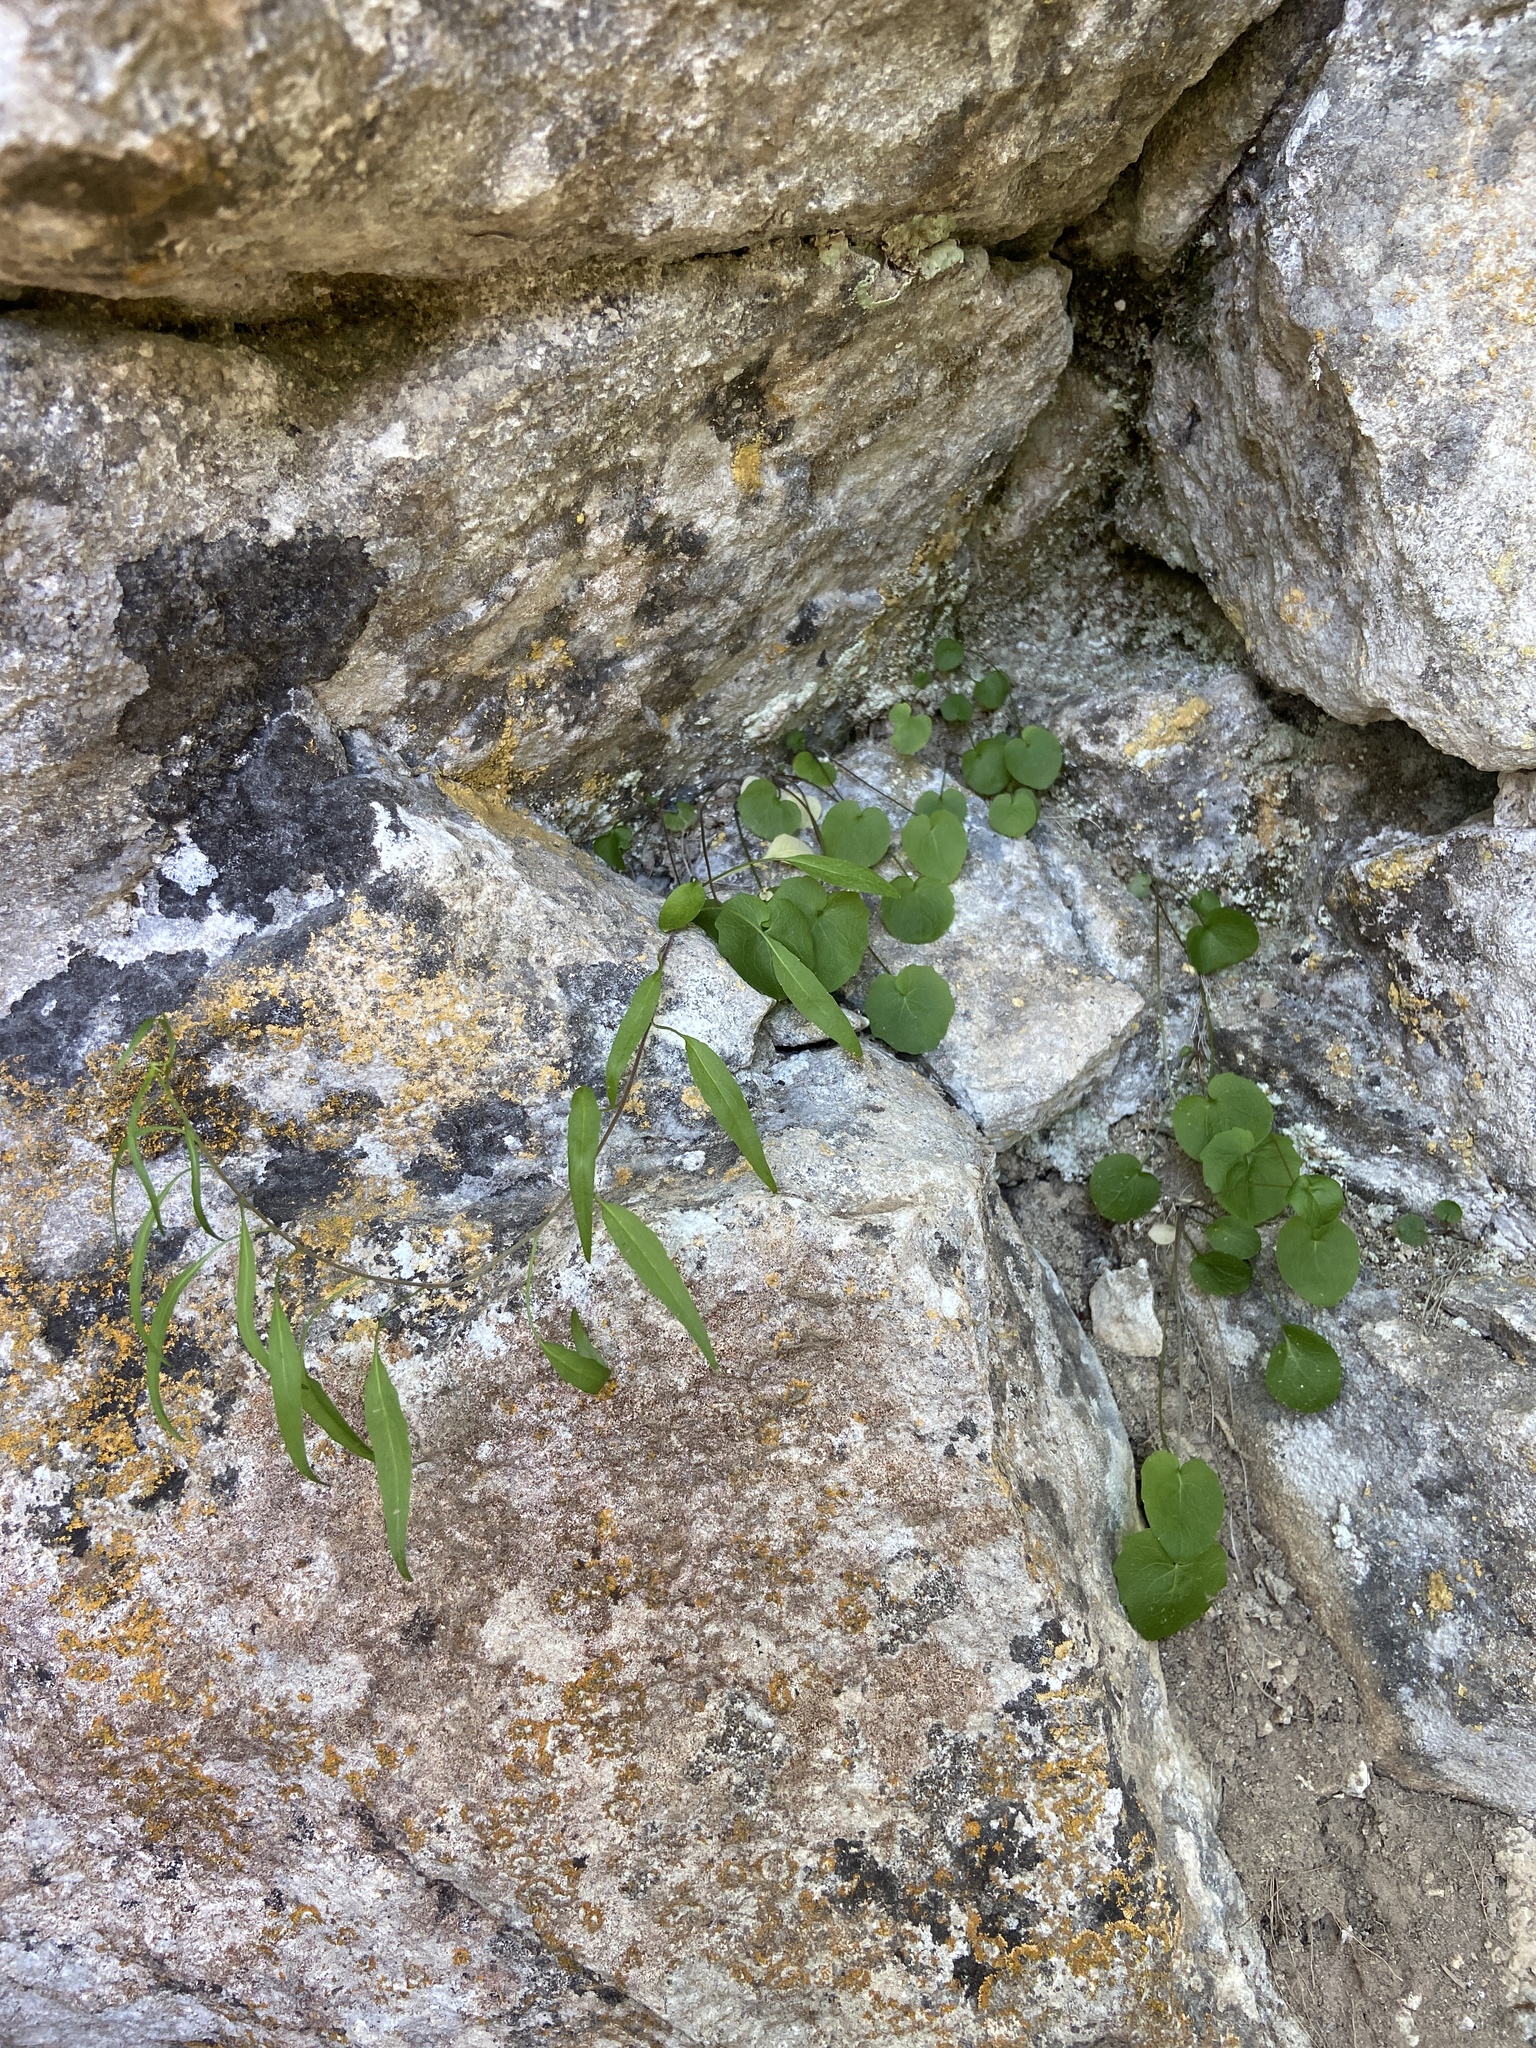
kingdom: Plantae
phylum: Tracheophyta
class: Magnoliopsida
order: Asterales
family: Campanulaceae
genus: Campanula
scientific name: Campanula rotundifolia
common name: Harebell
